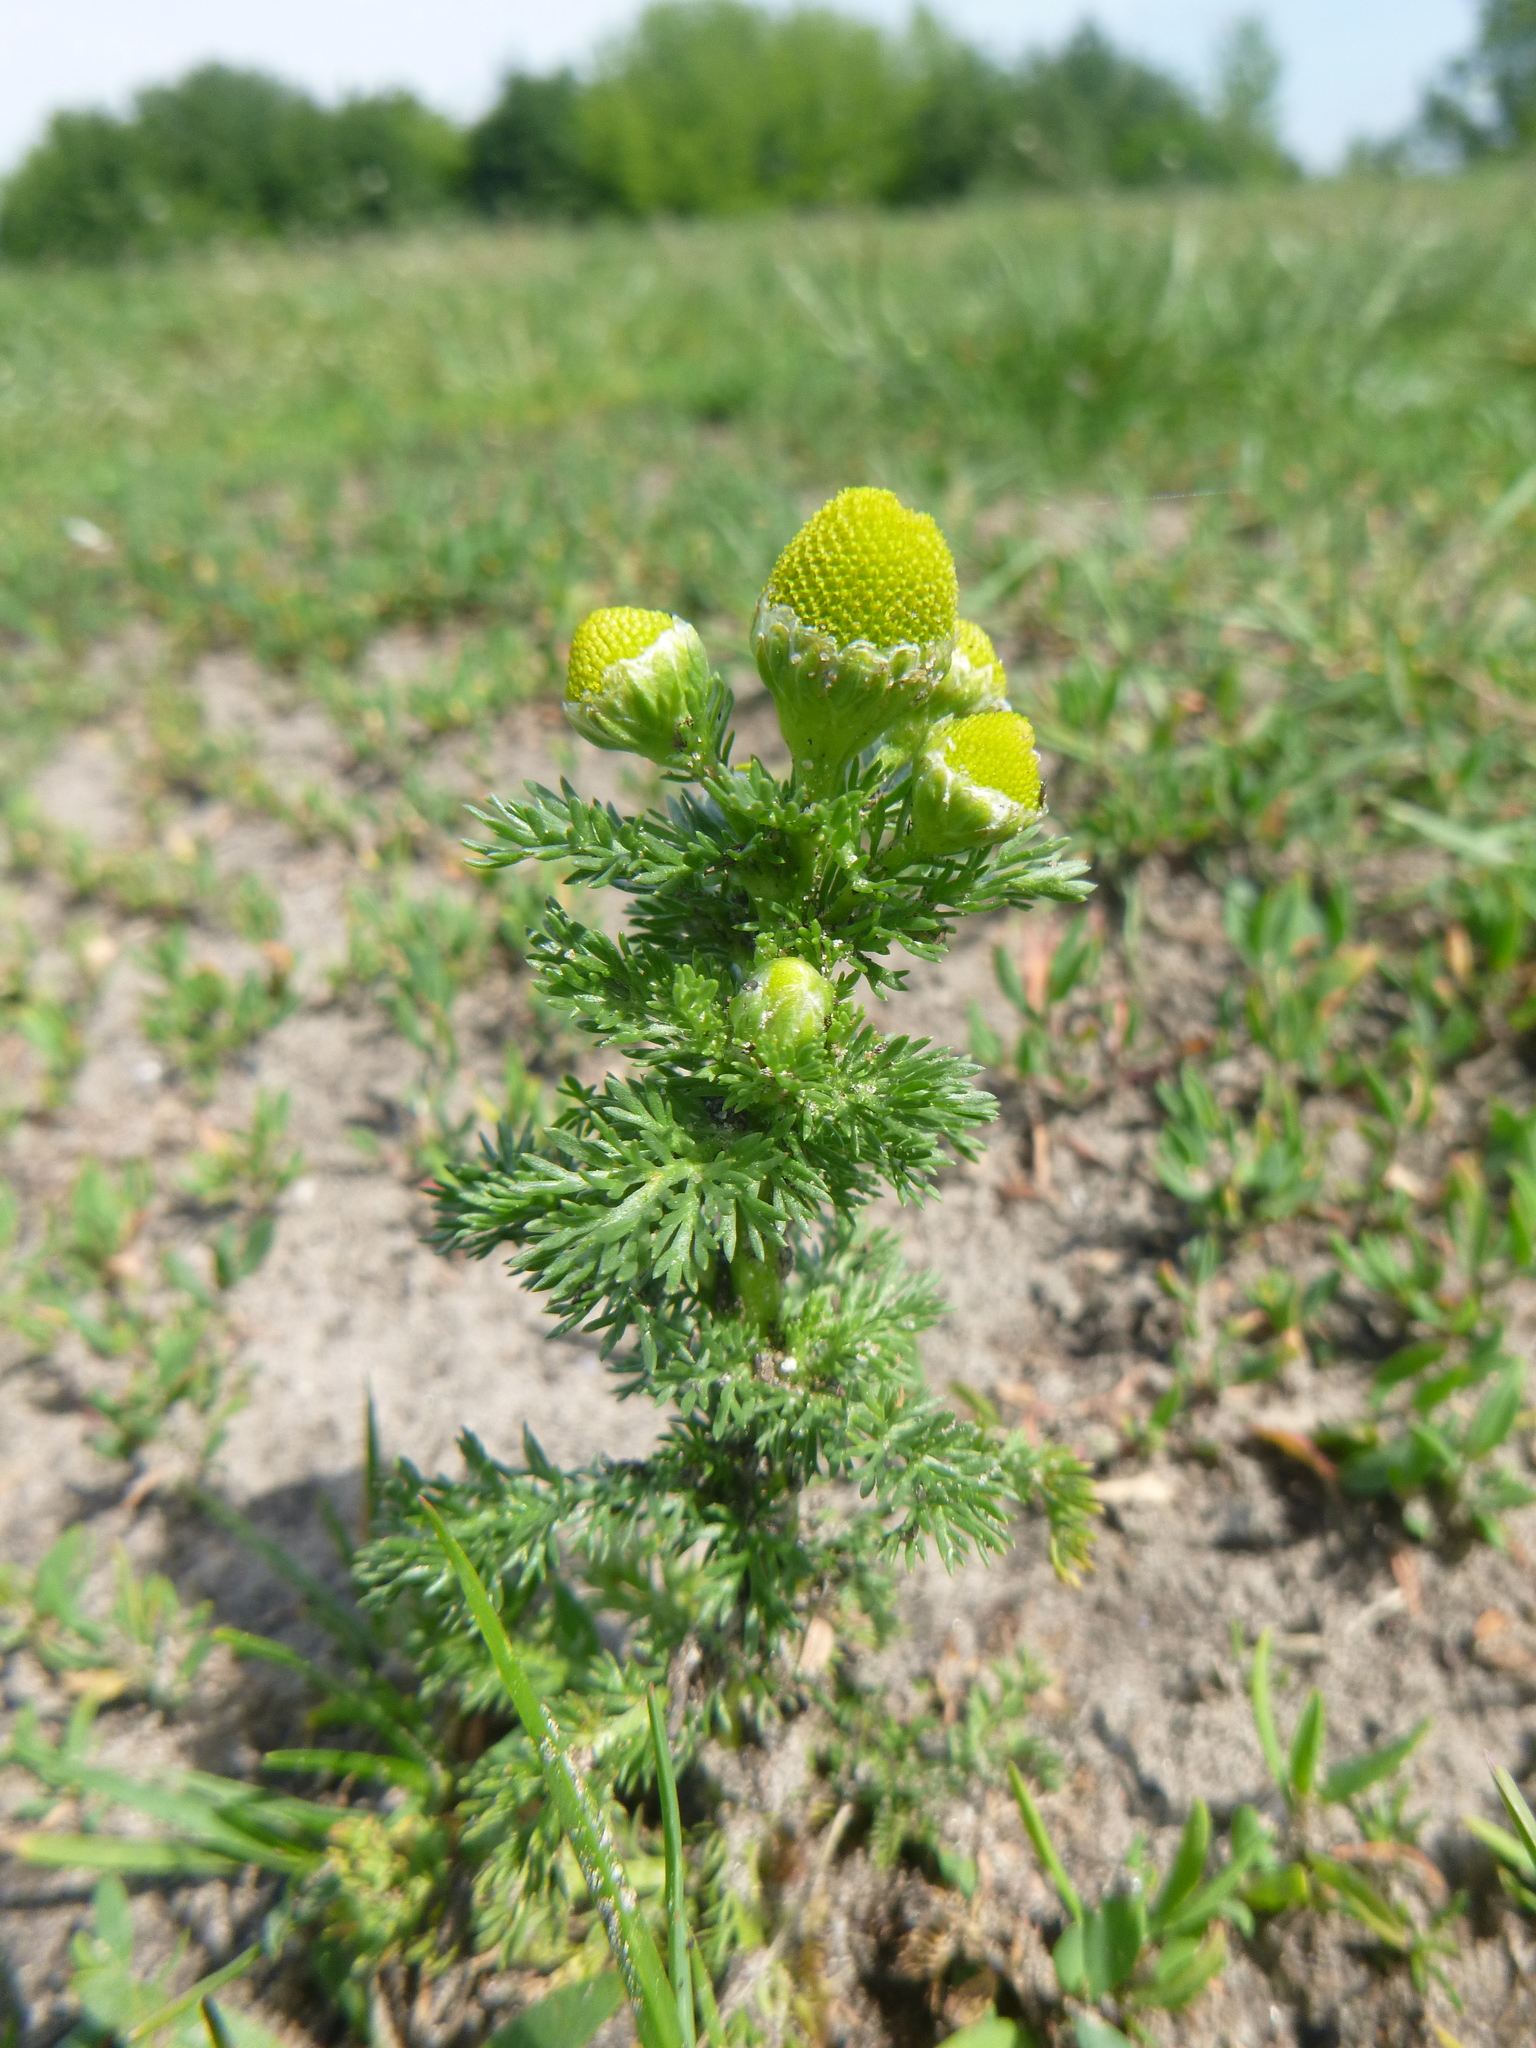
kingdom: Plantae
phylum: Tracheophyta
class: Magnoliopsida
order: Asterales
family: Asteraceae
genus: Matricaria
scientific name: Matricaria discoidea
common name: Disc mayweed
